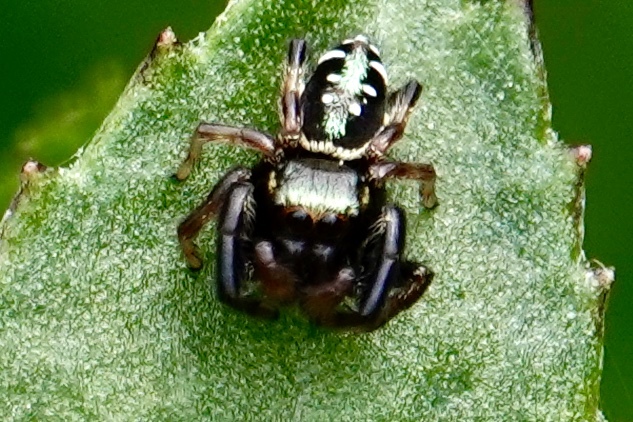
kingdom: Animalia
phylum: Arthropoda
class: Arachnida
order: Araneae
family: Salticidae
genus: Paraphidippus
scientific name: Paraphidippus aurantius
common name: Jumping spiders
